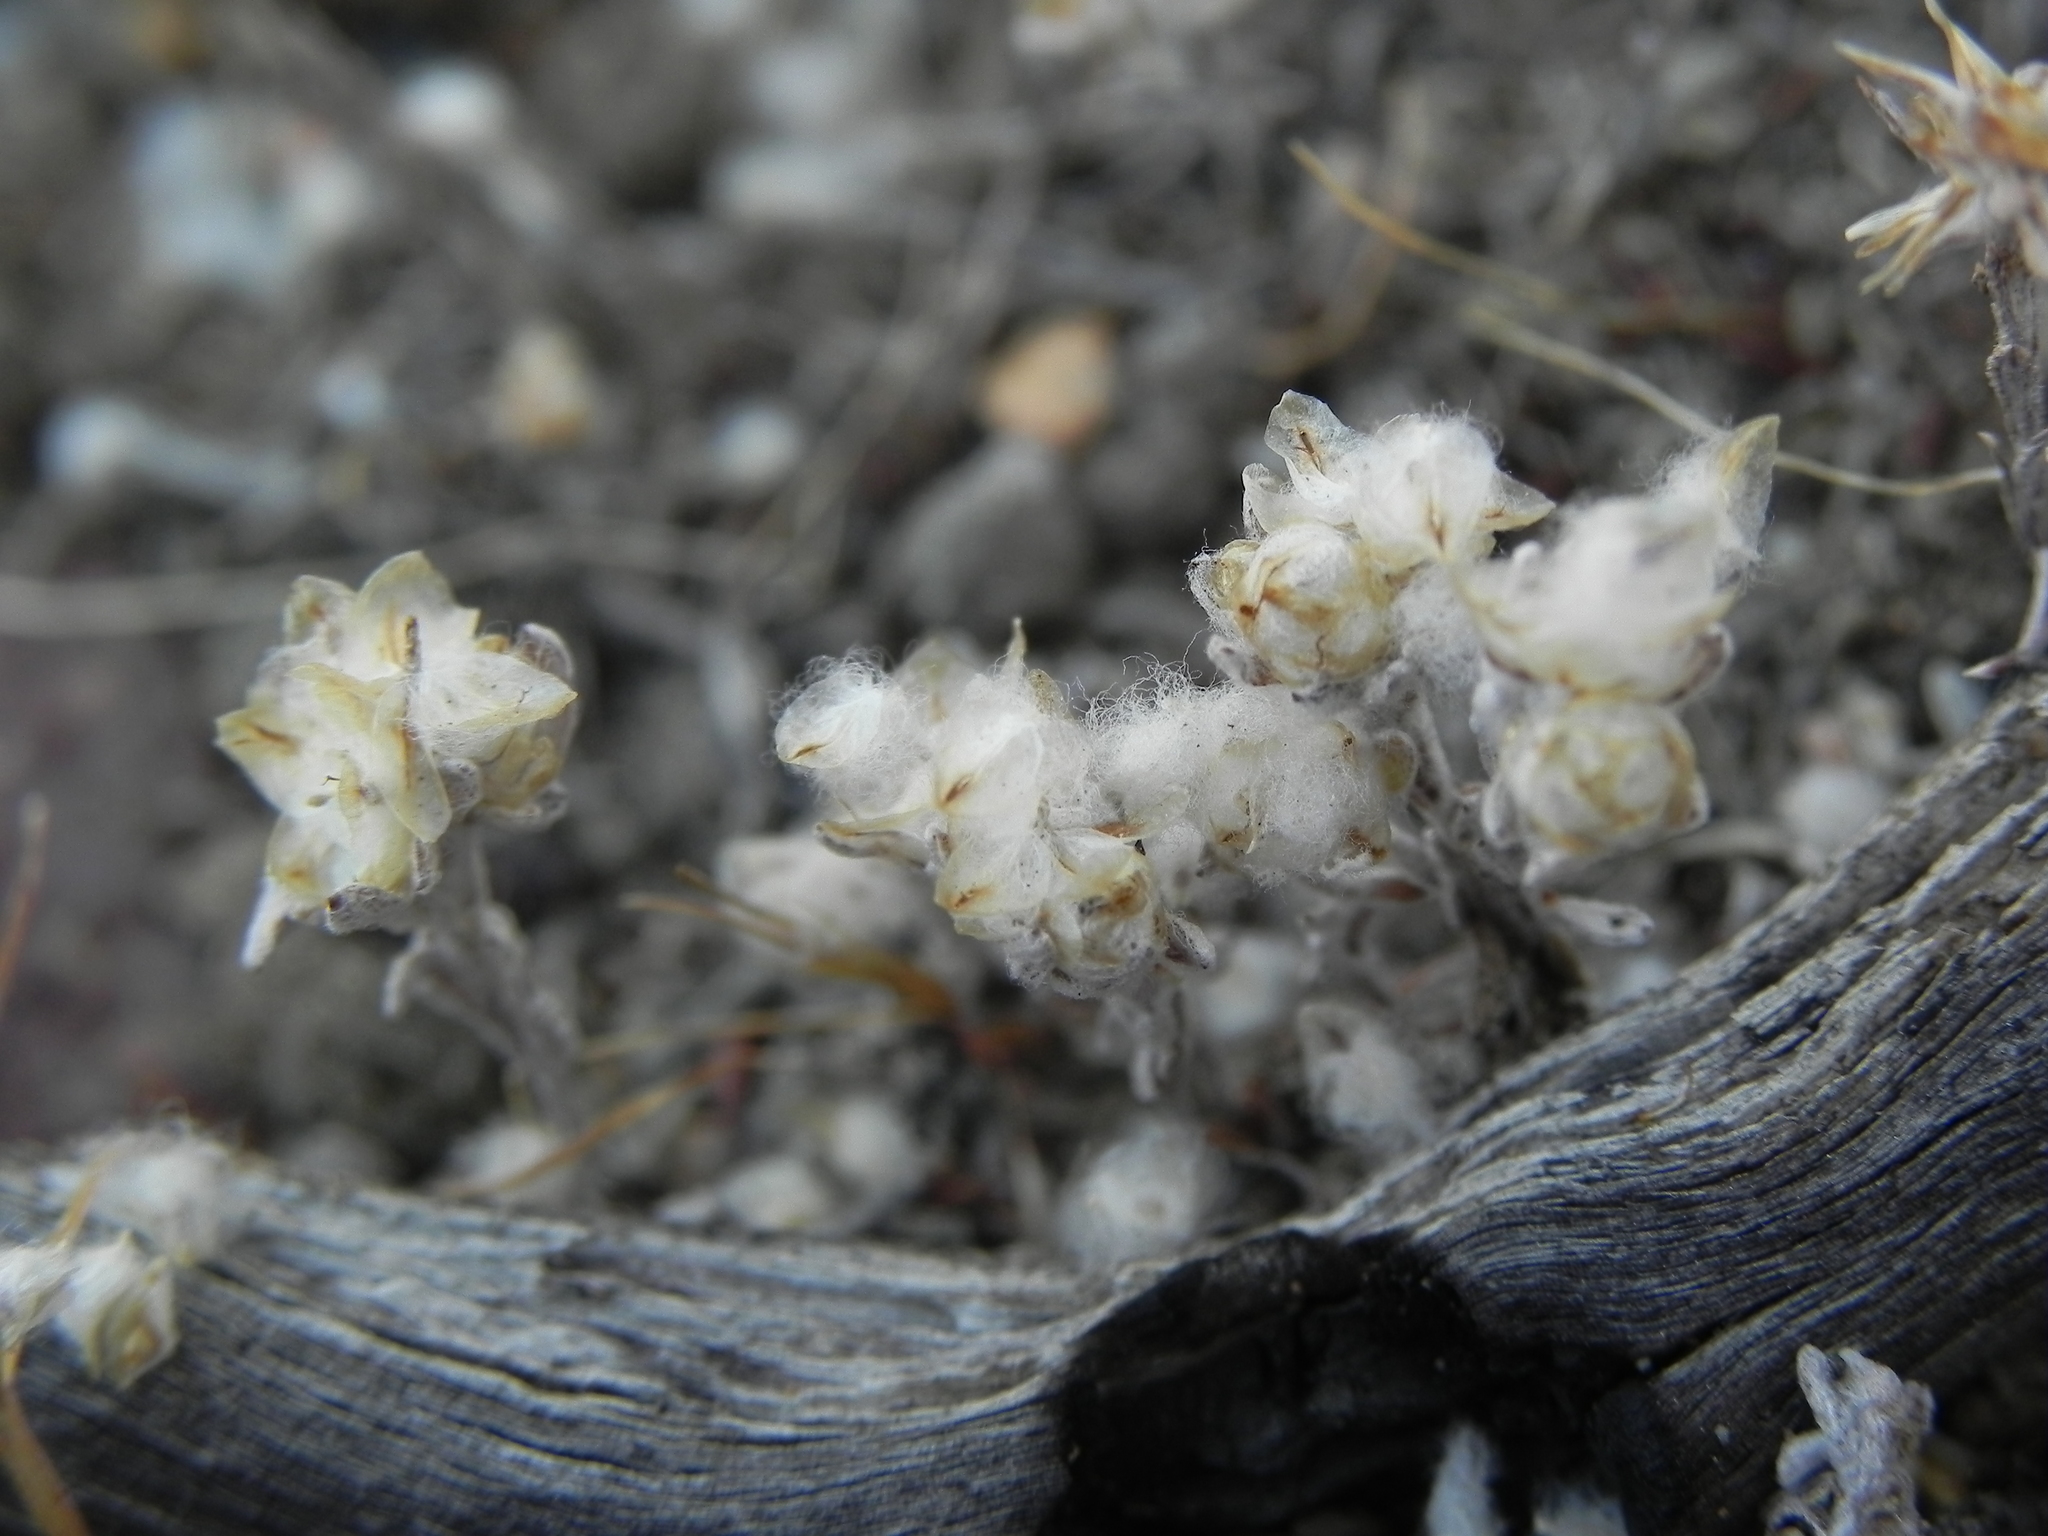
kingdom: Plantae
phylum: Tracheophyta
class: Magnoliopsida
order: Asterales
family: Asteraceae
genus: Stylocline
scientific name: Stylocline gnaphaloides
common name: Everlasting nest-straw
